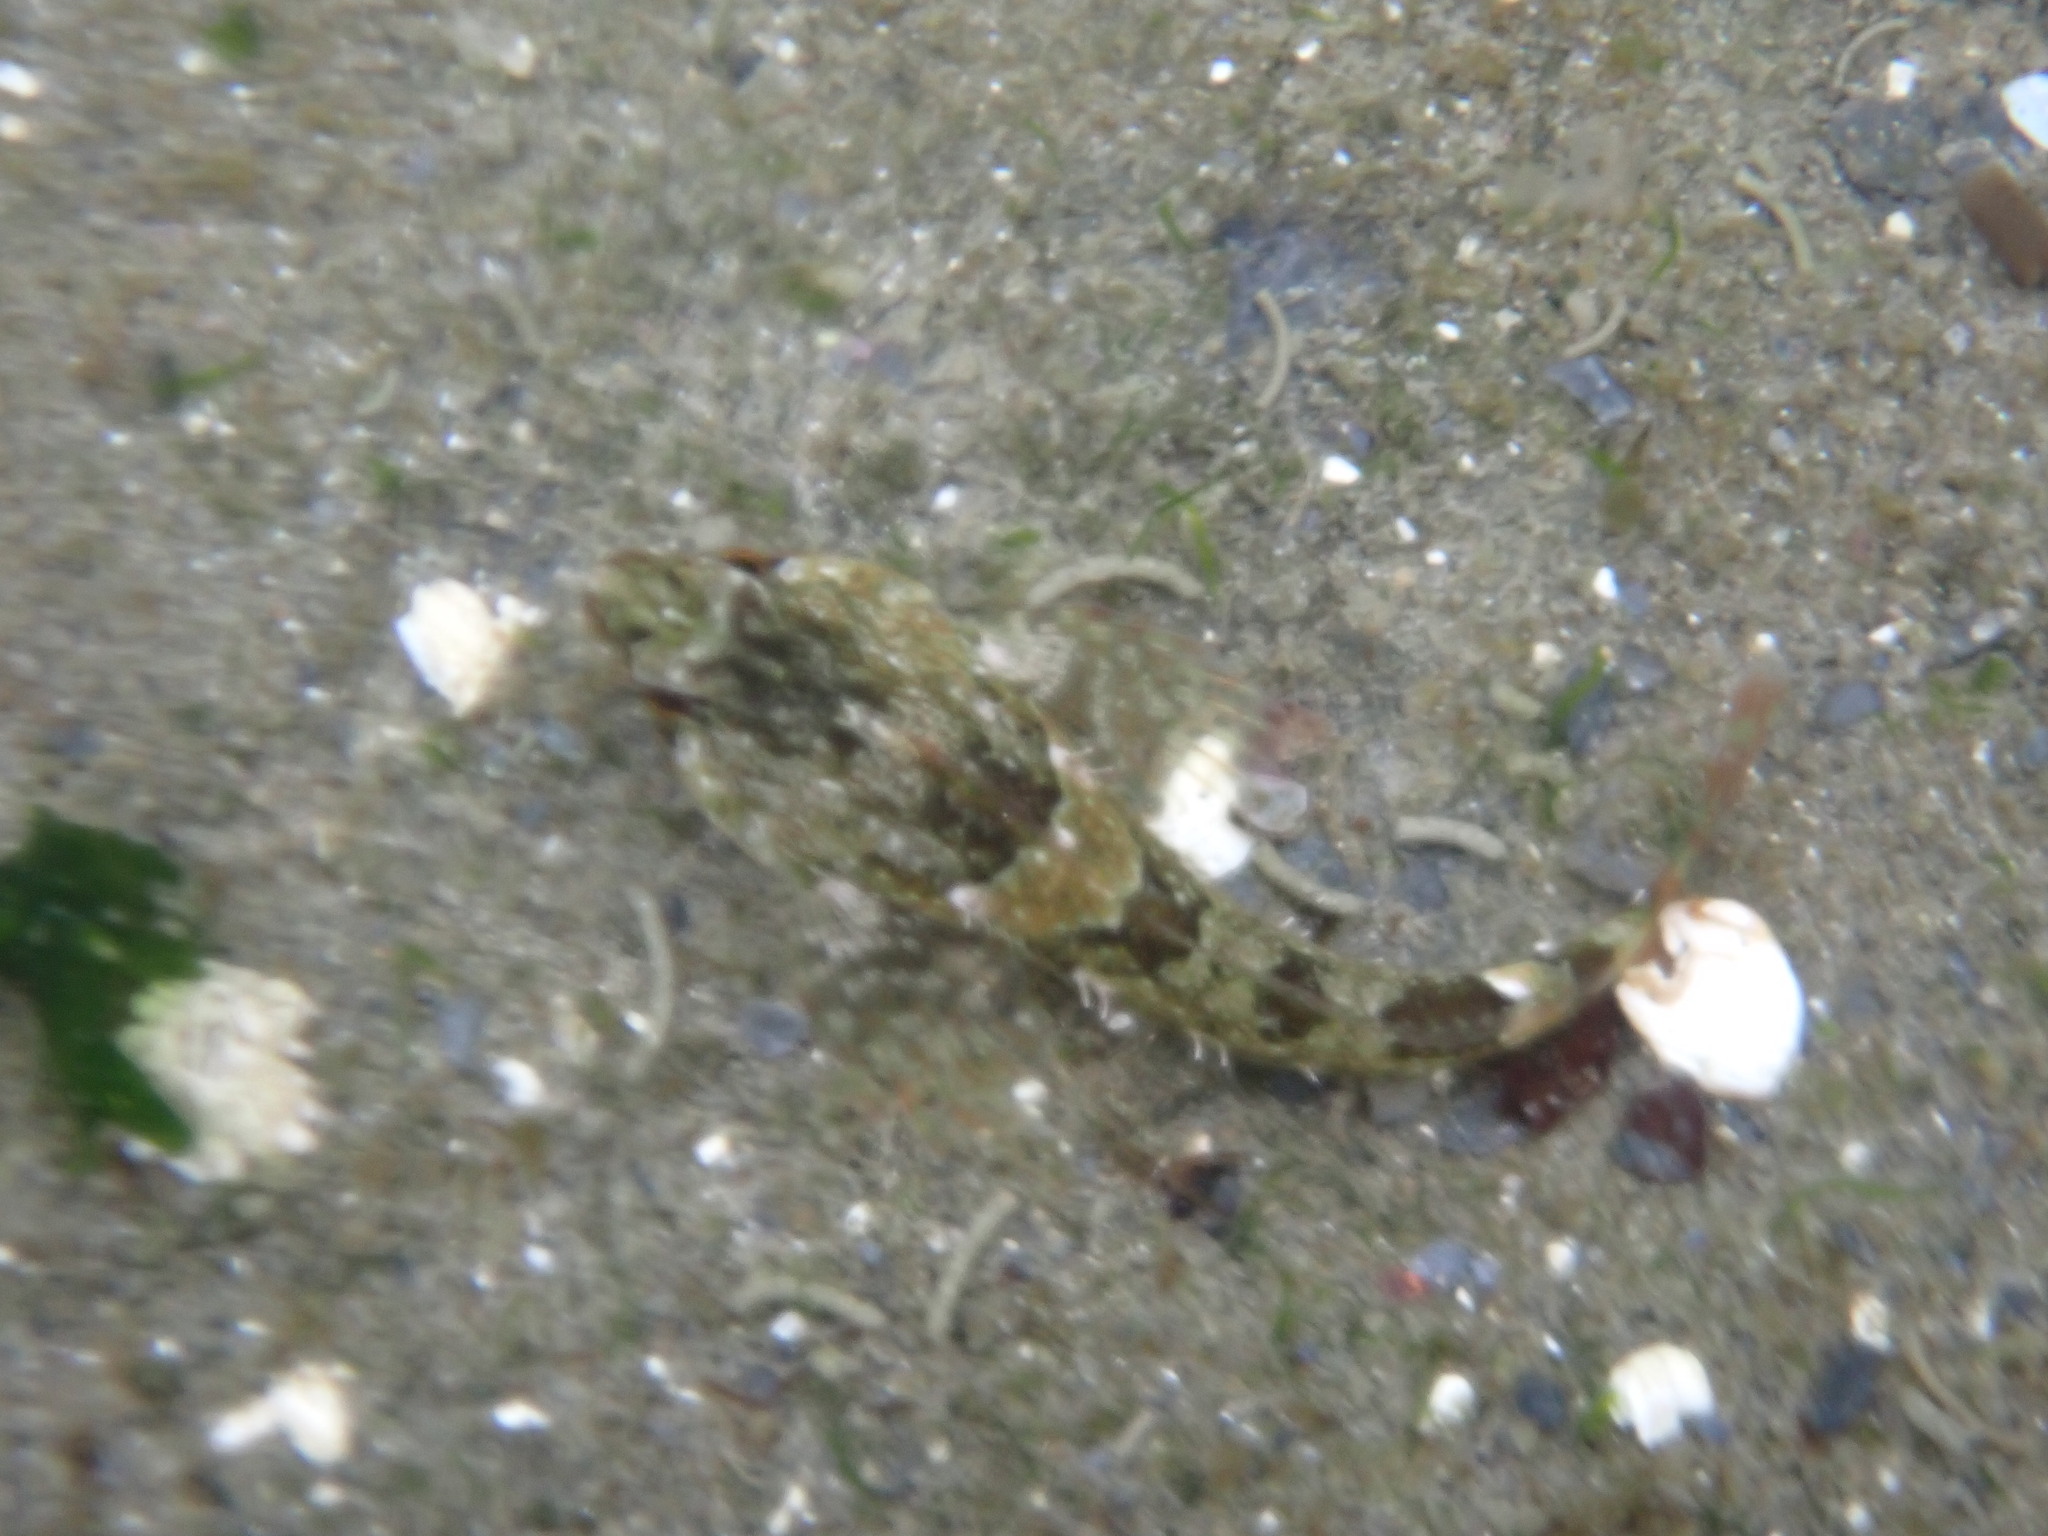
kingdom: Animalia
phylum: Chordata
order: Scorpaeniformes
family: Cottidae
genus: Oligocottus
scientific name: Oligocottus maculosus
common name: Tidepool sculpin
